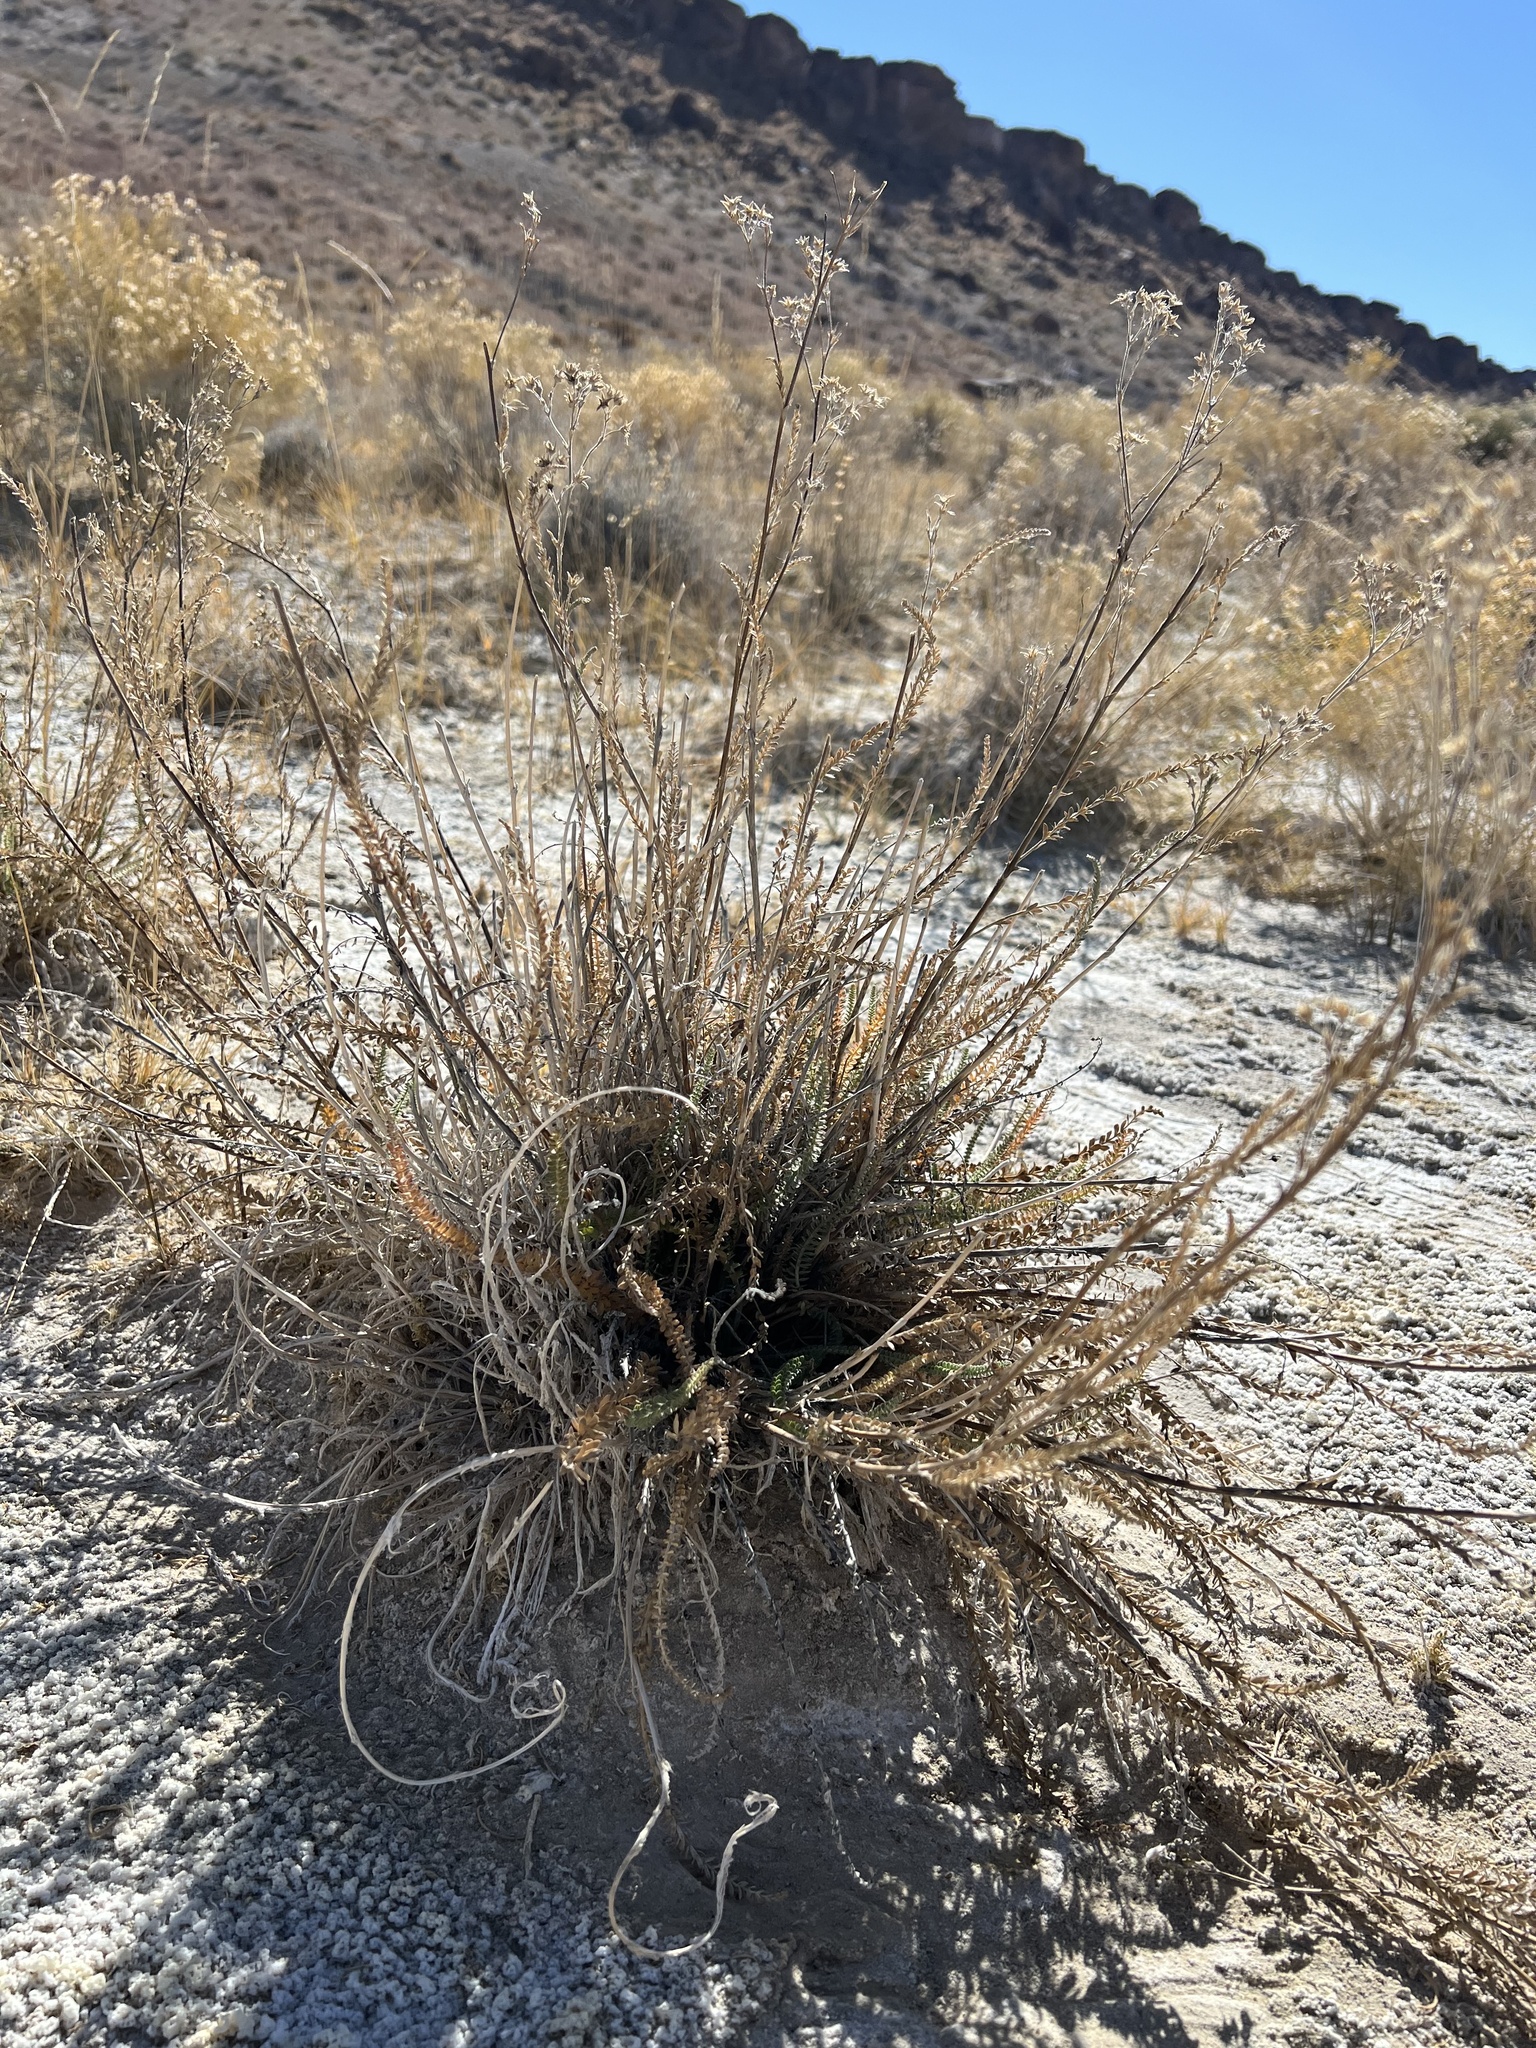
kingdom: Plantae
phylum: Tracheophyta
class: Magnoliopsida
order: Rosales
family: Rosaceae
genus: Potentilla
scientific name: Potentilla kingii
